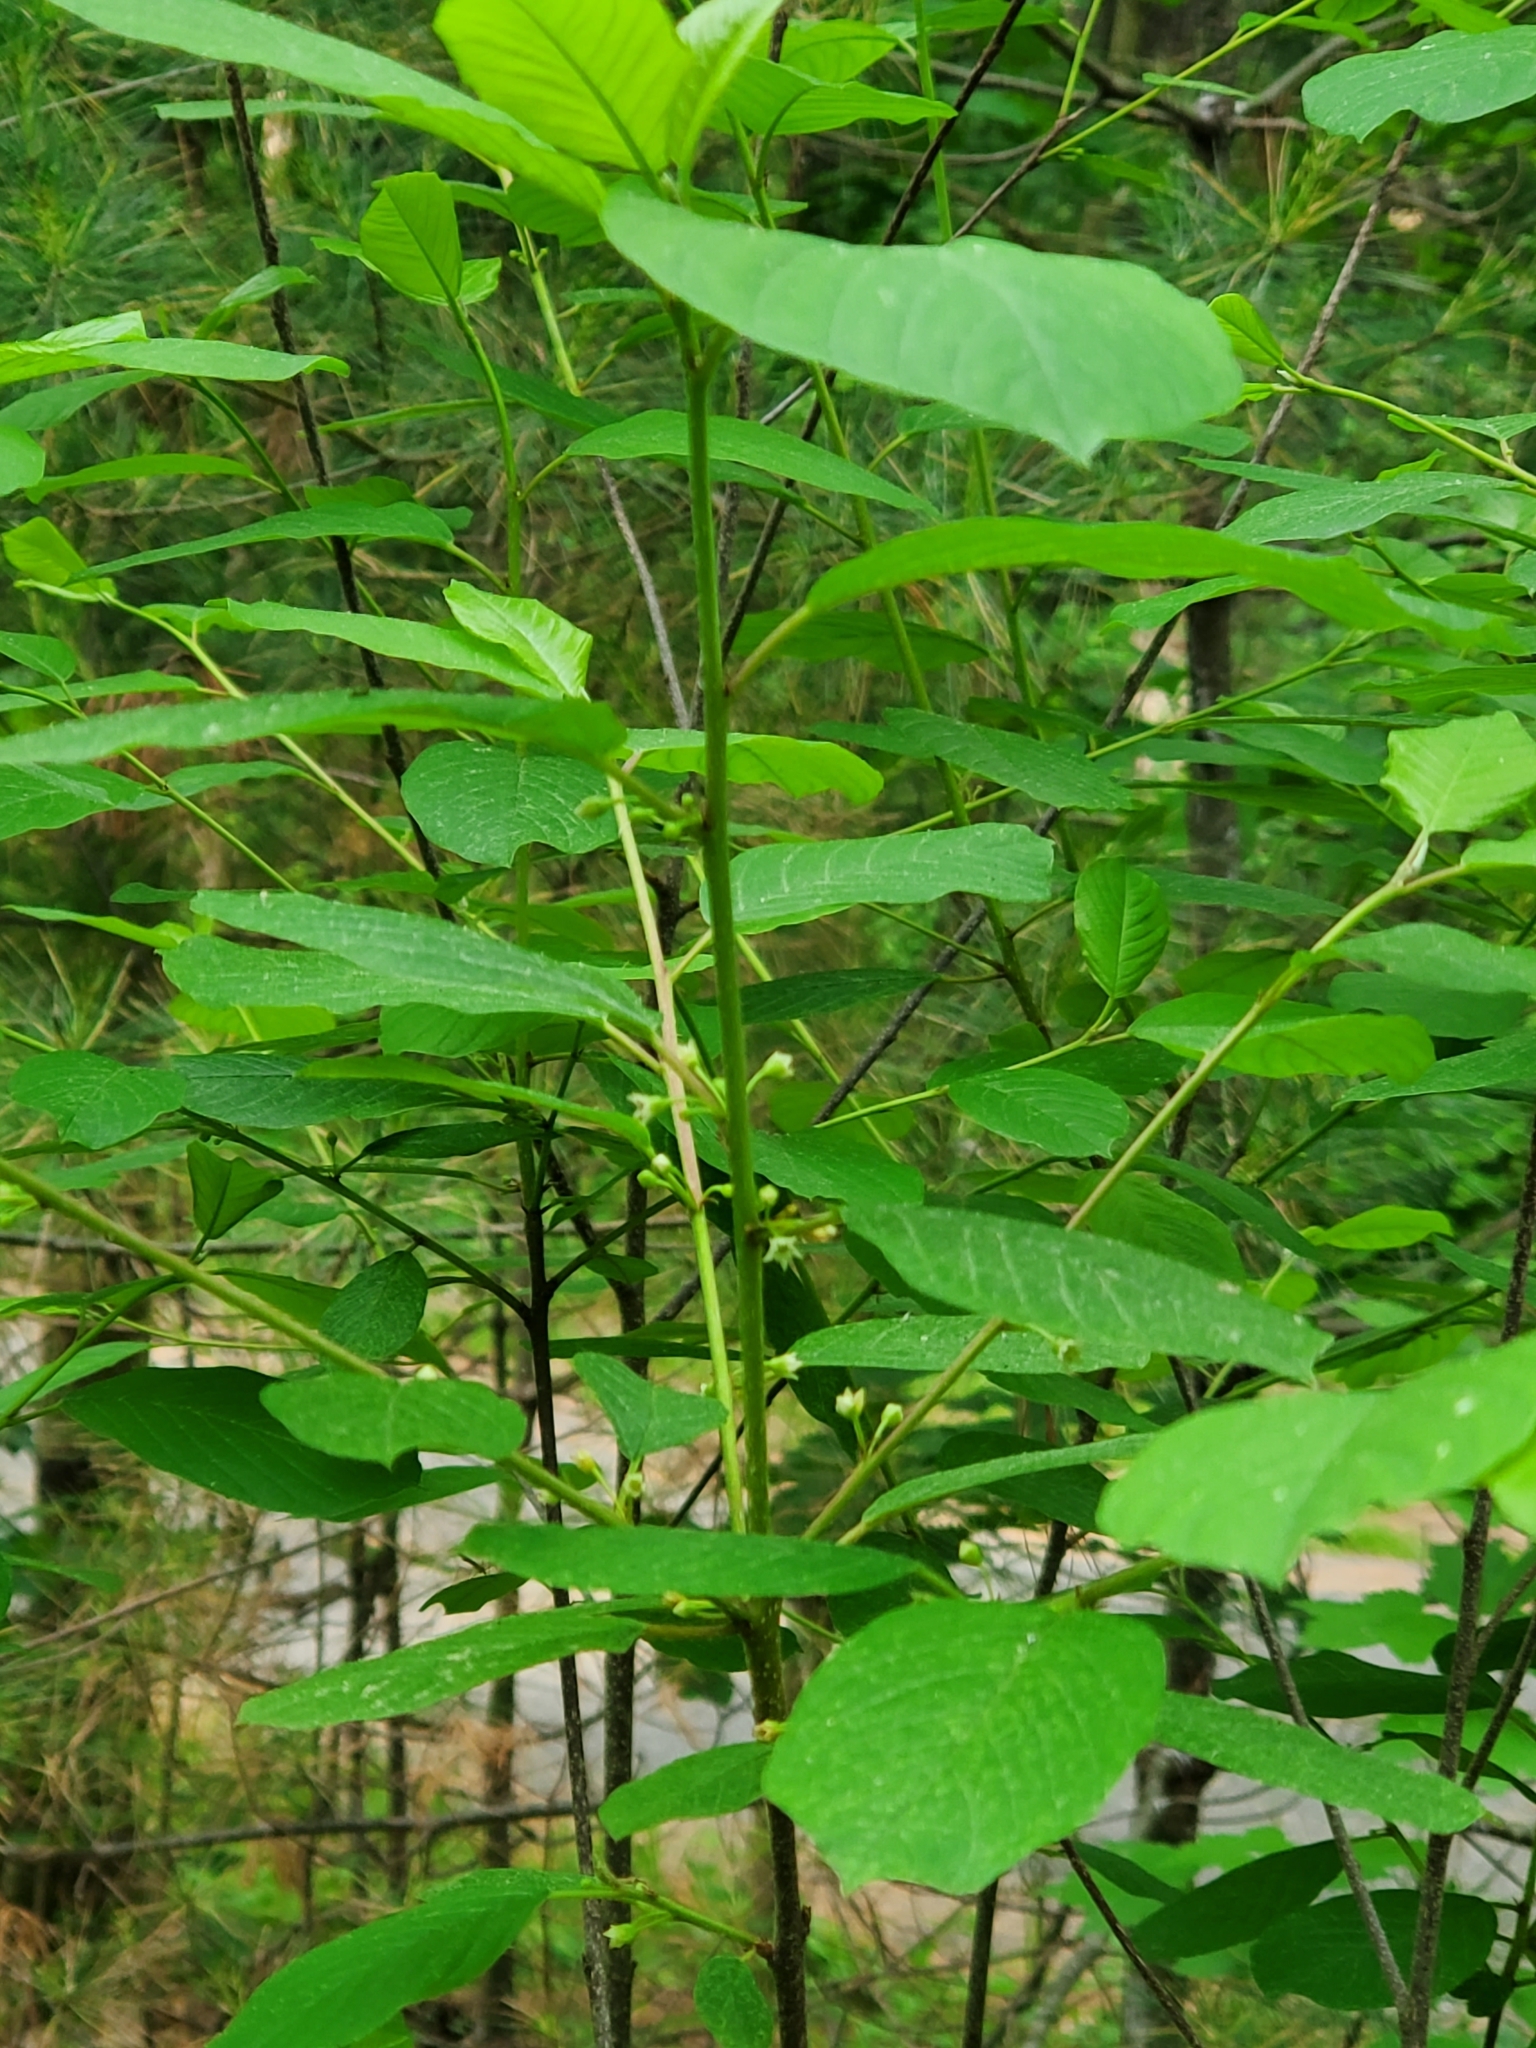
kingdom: Plantae
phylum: Tracheophyta
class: Magnoliopsida
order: Rosales
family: Rhamnaceae
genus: Frangula
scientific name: Frangula alnus
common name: Alder buckthorn
